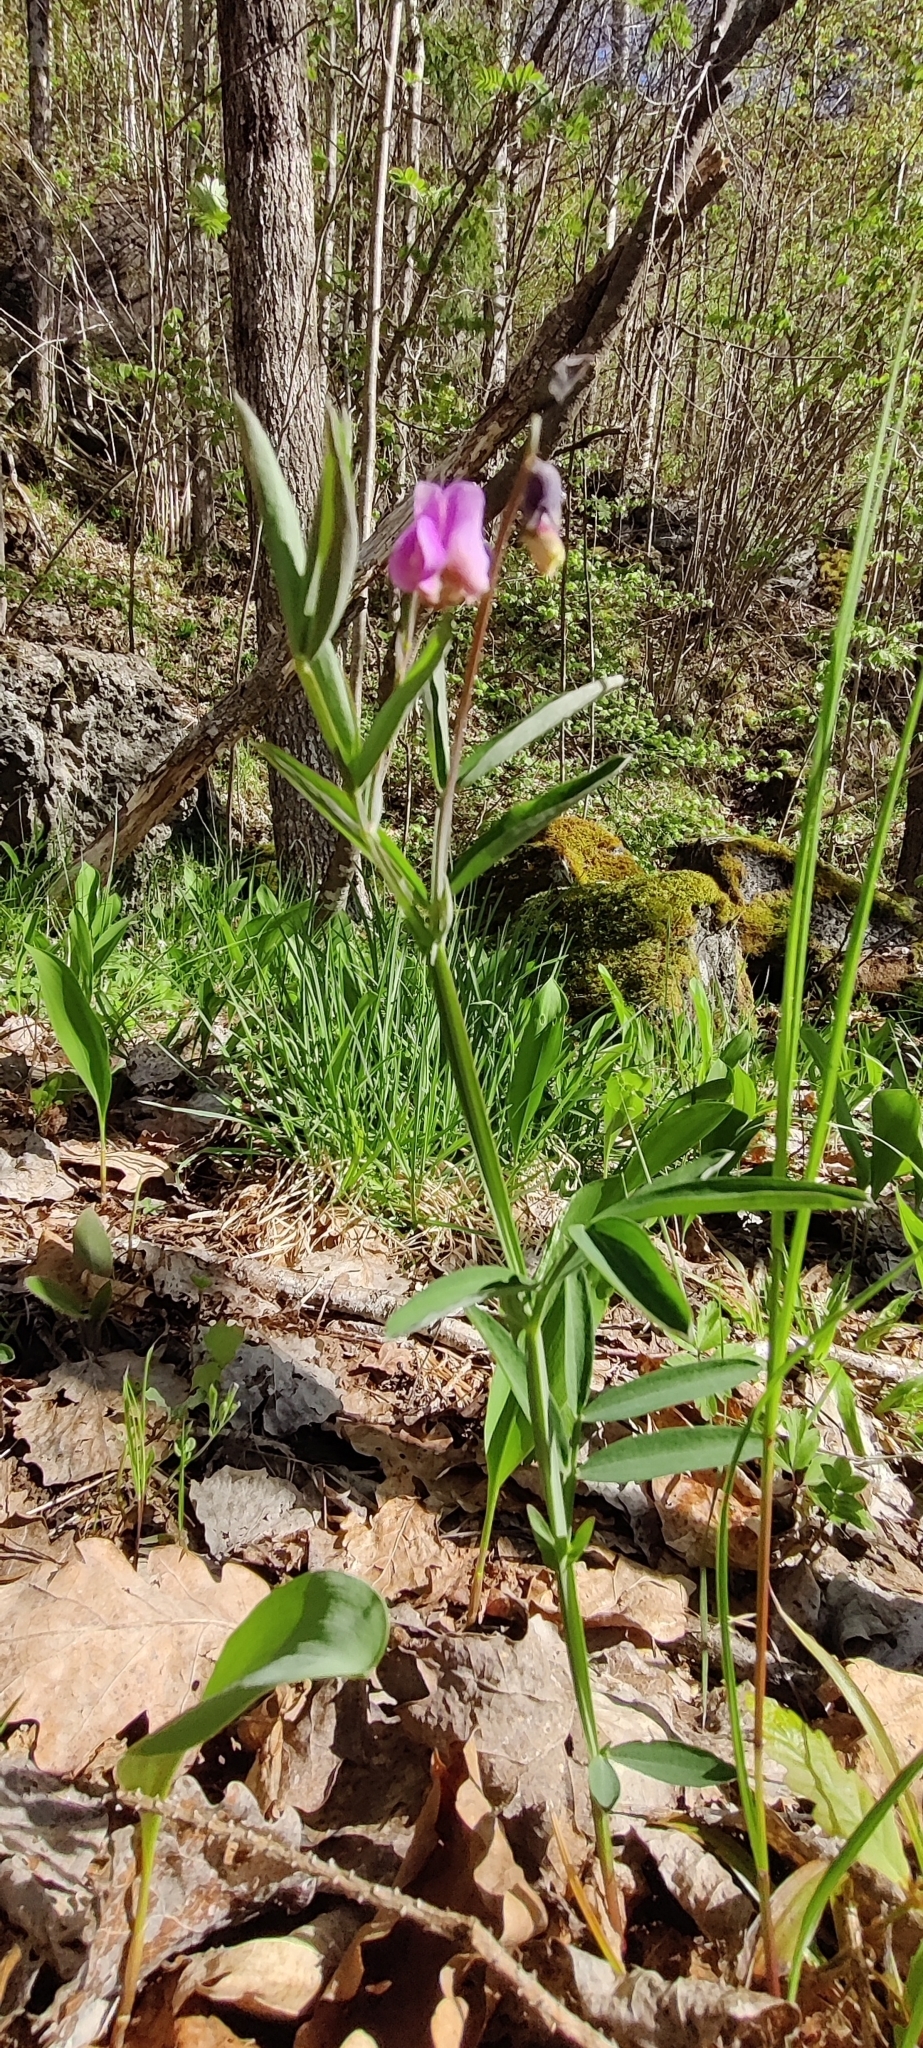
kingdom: Plantae
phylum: Tracheophyta
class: Magnoliopsida
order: Fabales
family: Fabaceae
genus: Lathyrus
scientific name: Lathyrus linifolius
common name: Bitter-vetch
